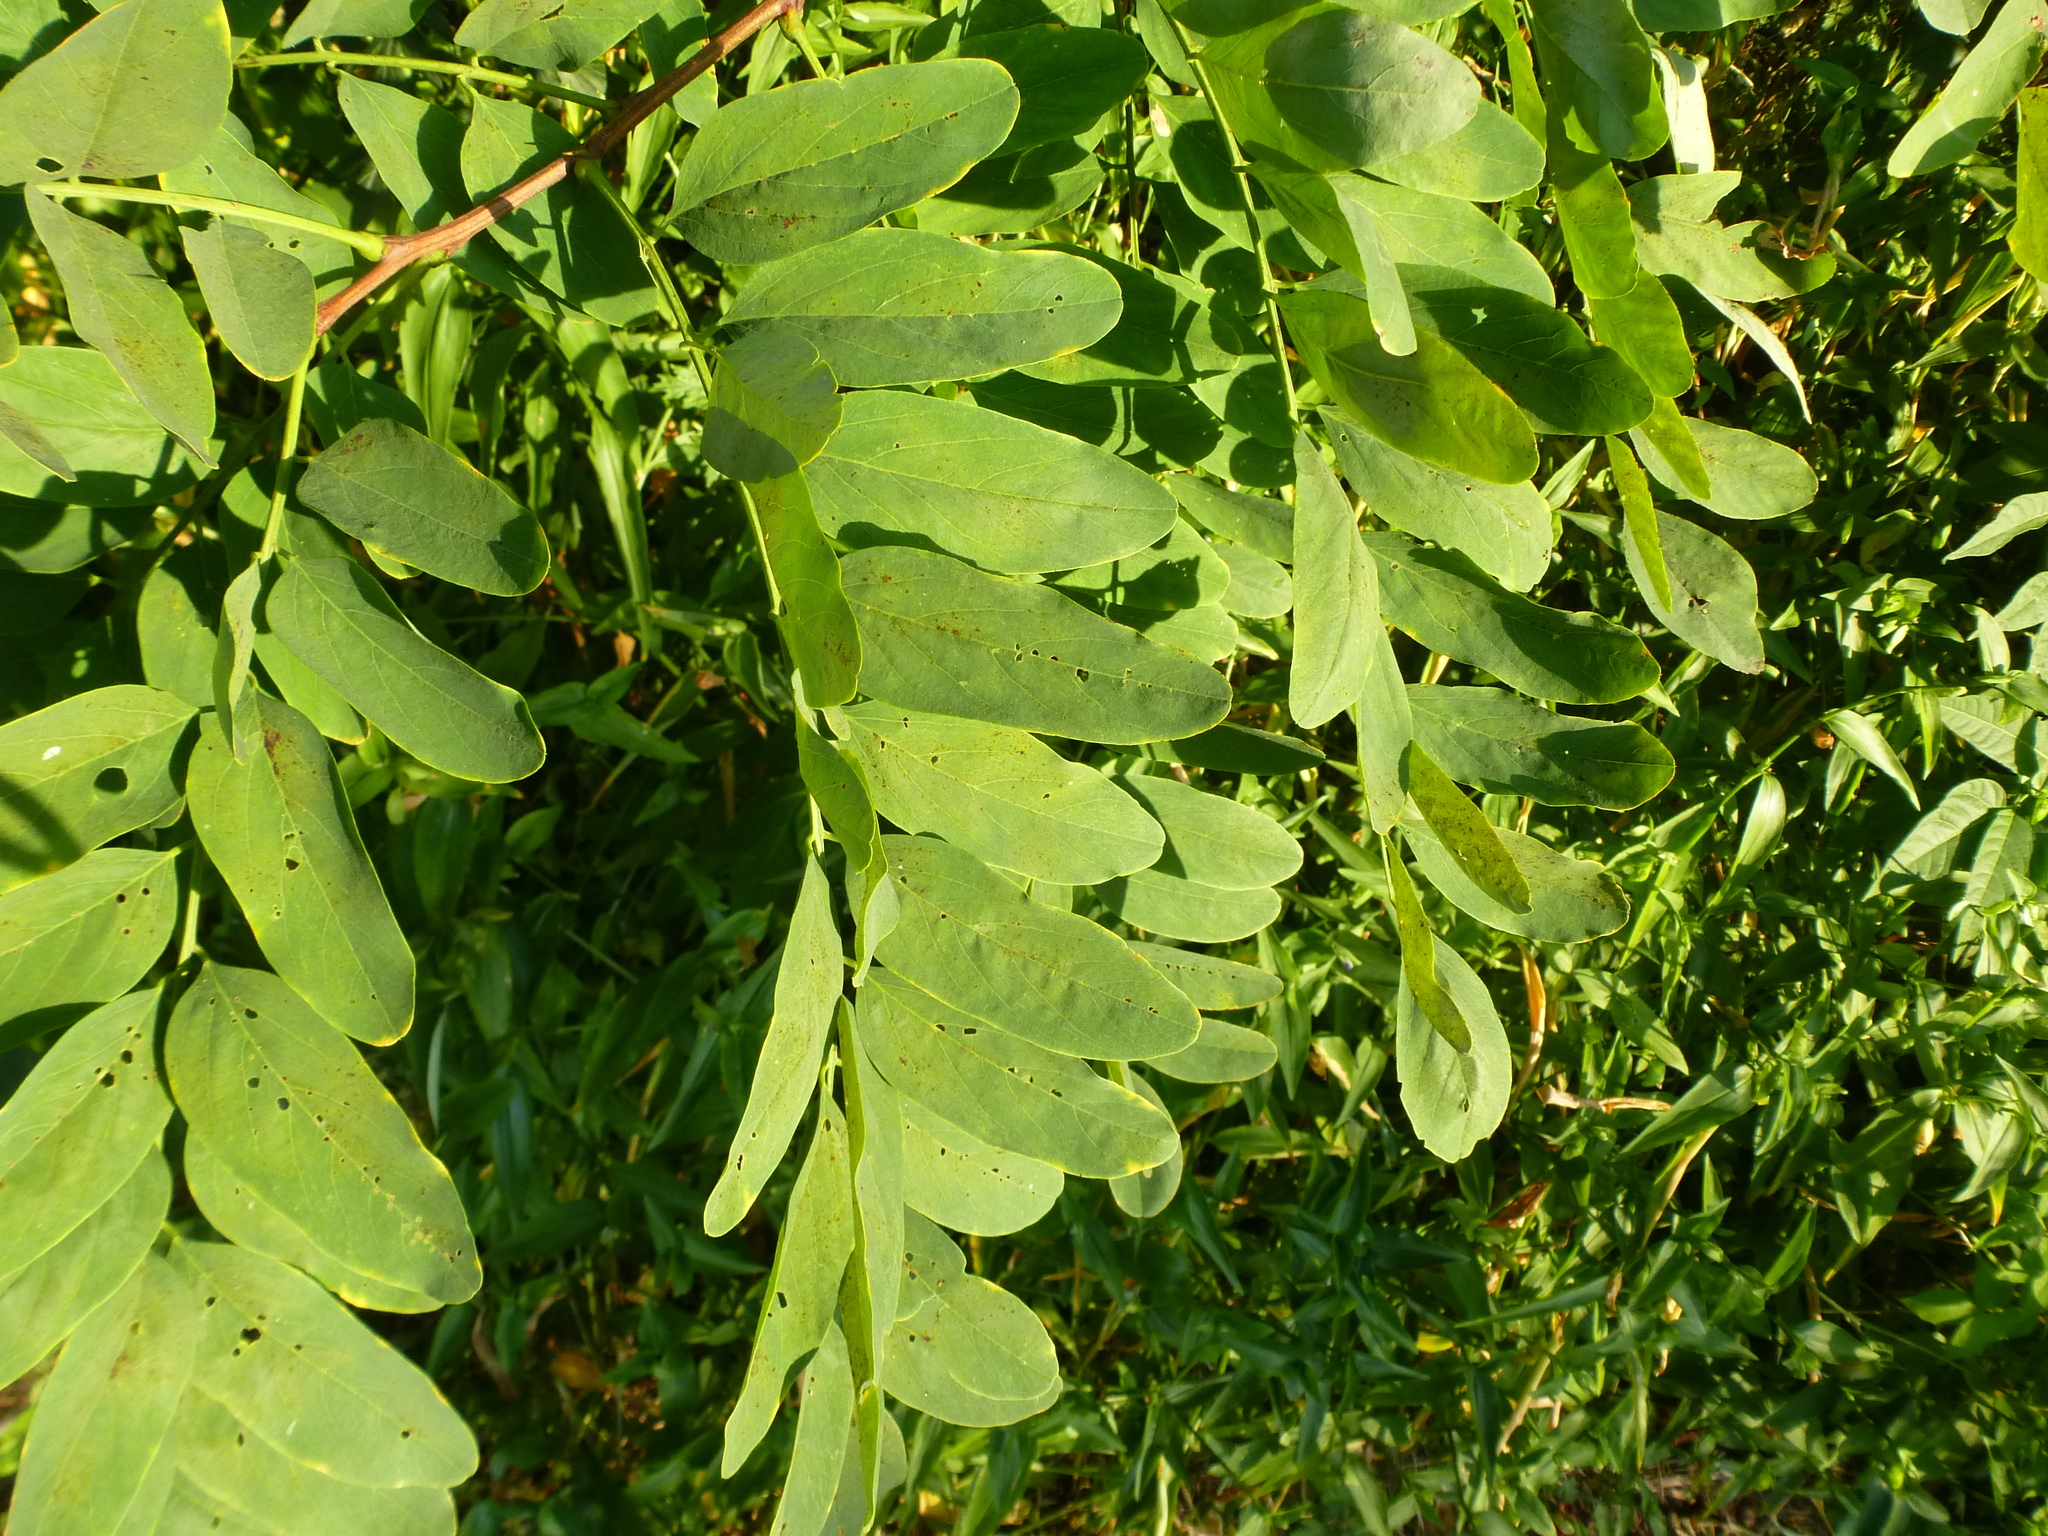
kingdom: Plantae
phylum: Tracheophyta
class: Magnoliopsida
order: Fabales
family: Fabaceae
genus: Robinia
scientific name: Robinia pseudoacacia
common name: Black locust
